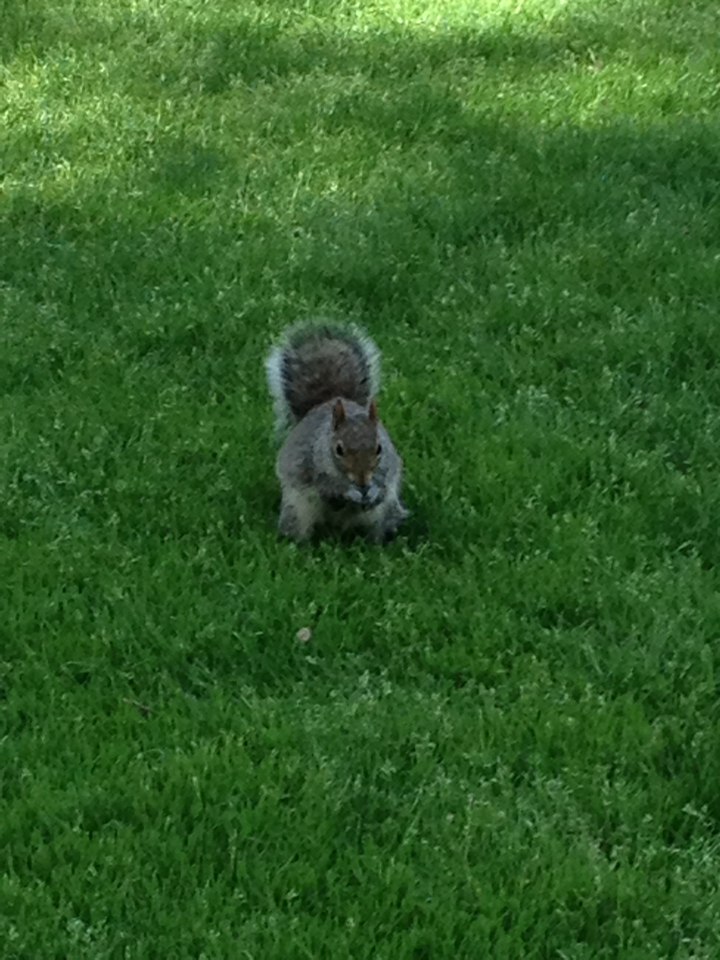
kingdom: Animalia
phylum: Chordata
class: Mammalia
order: Rodentia
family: Sciuridae
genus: Sciurus
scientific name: Sciurus carolinensis
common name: Eastern gray squirrel
